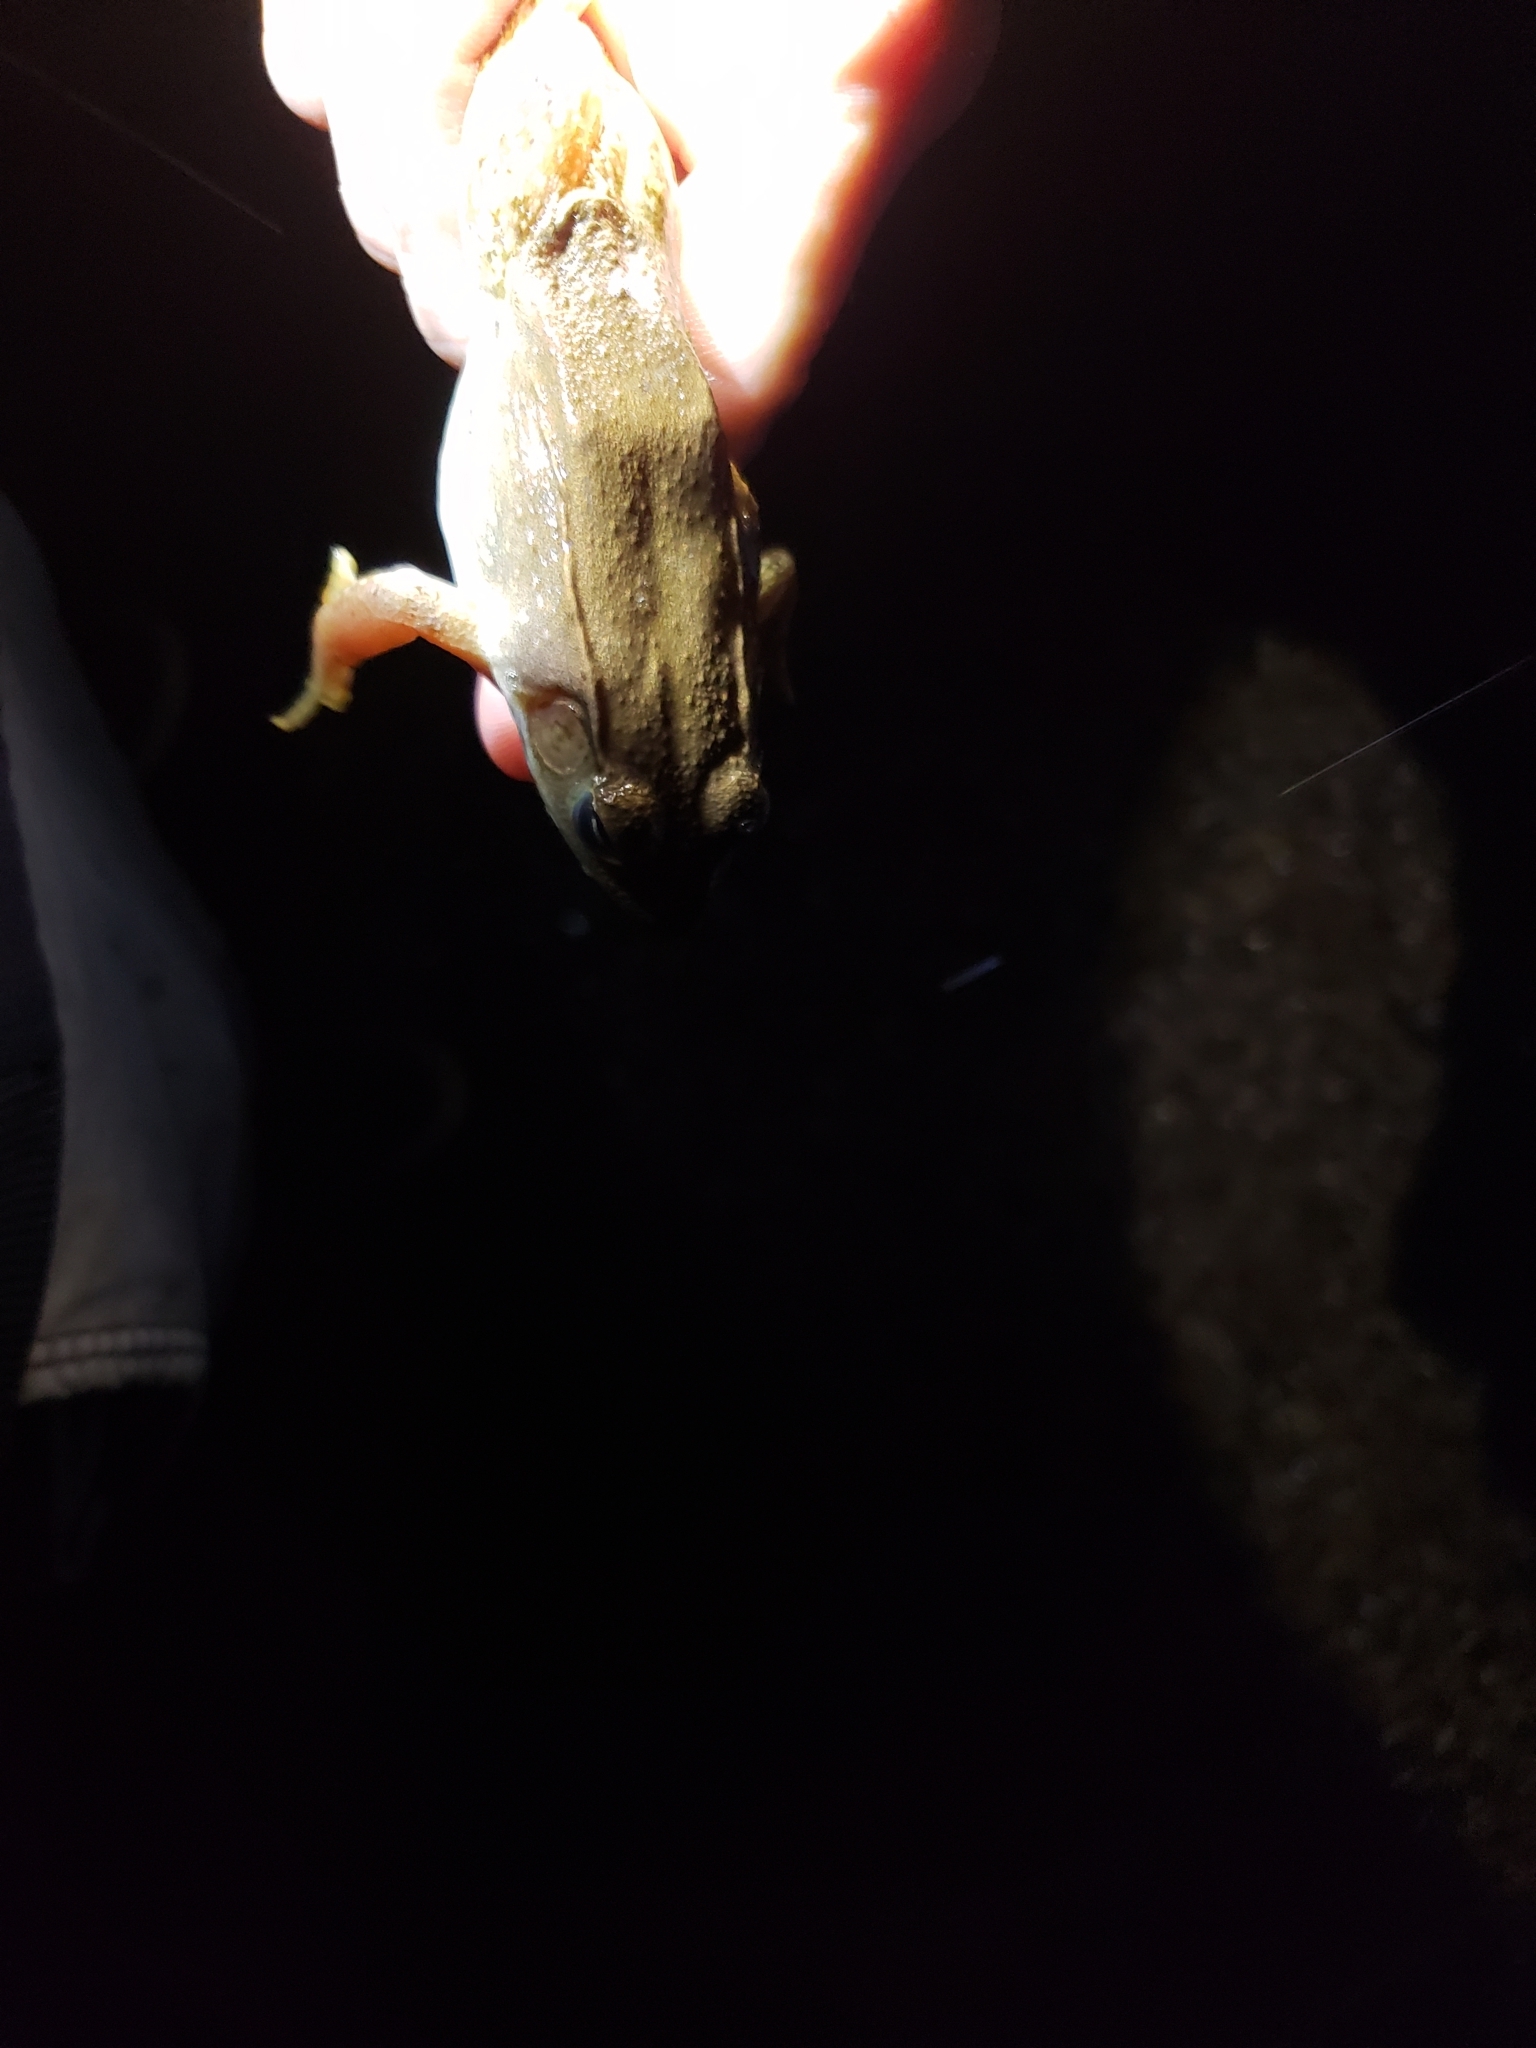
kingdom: Animalia
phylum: Chordata
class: Amphibia
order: Anura
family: Ranidae
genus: Lithobates
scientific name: Lithobates clamitans
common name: Green frog
